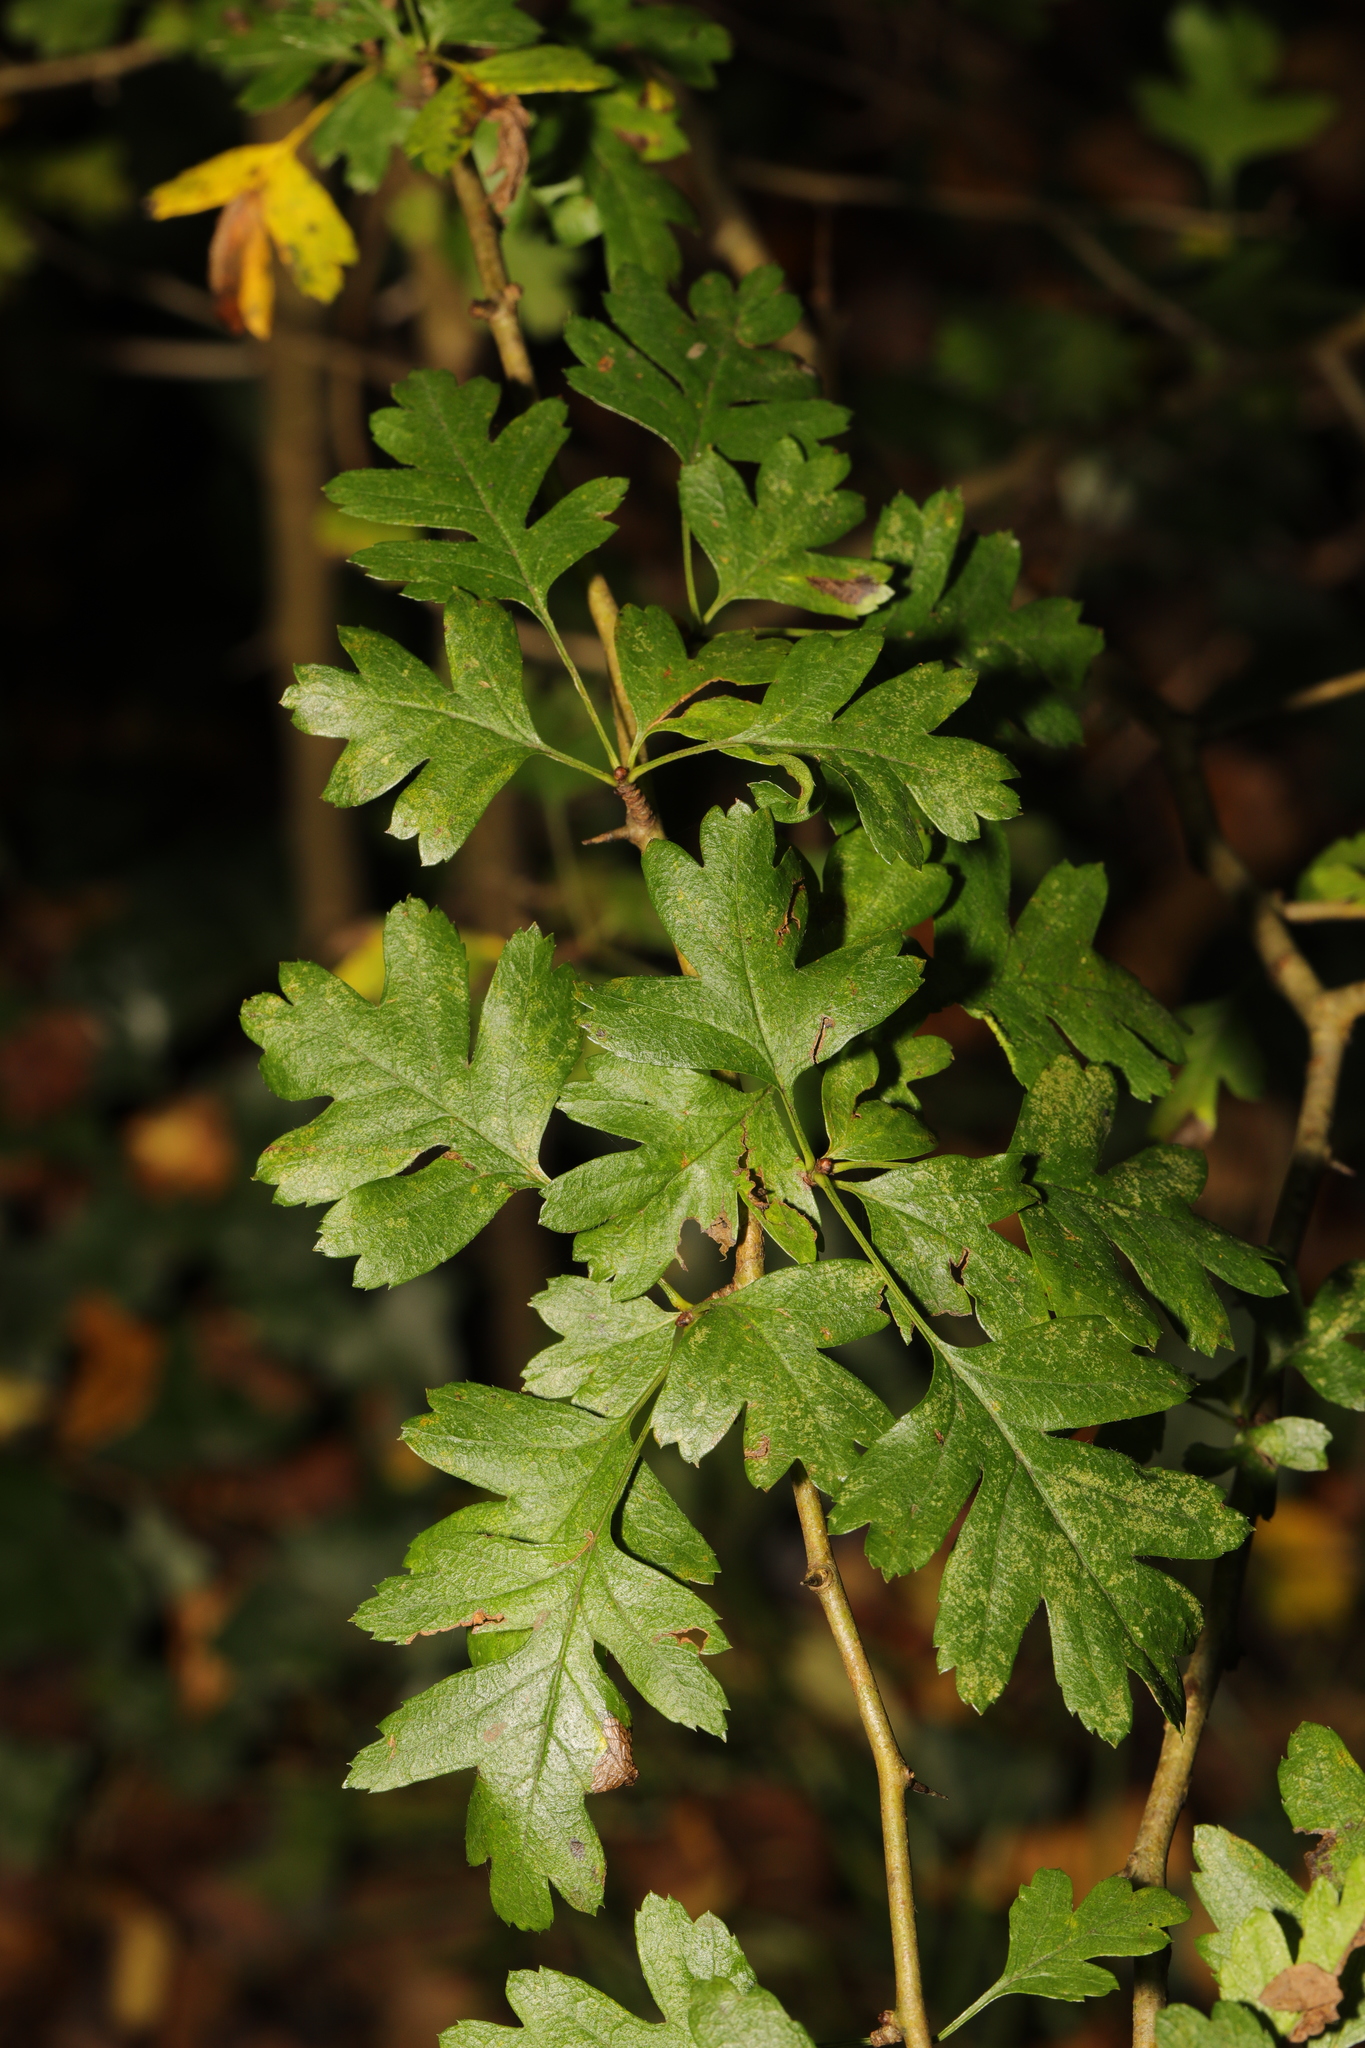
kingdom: Plantae
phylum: Tracheophyta
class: Magnoliopsida
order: Rosales
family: Rosaceae
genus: Crataegus
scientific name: Crataegus monogyna
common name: Hawthorn
